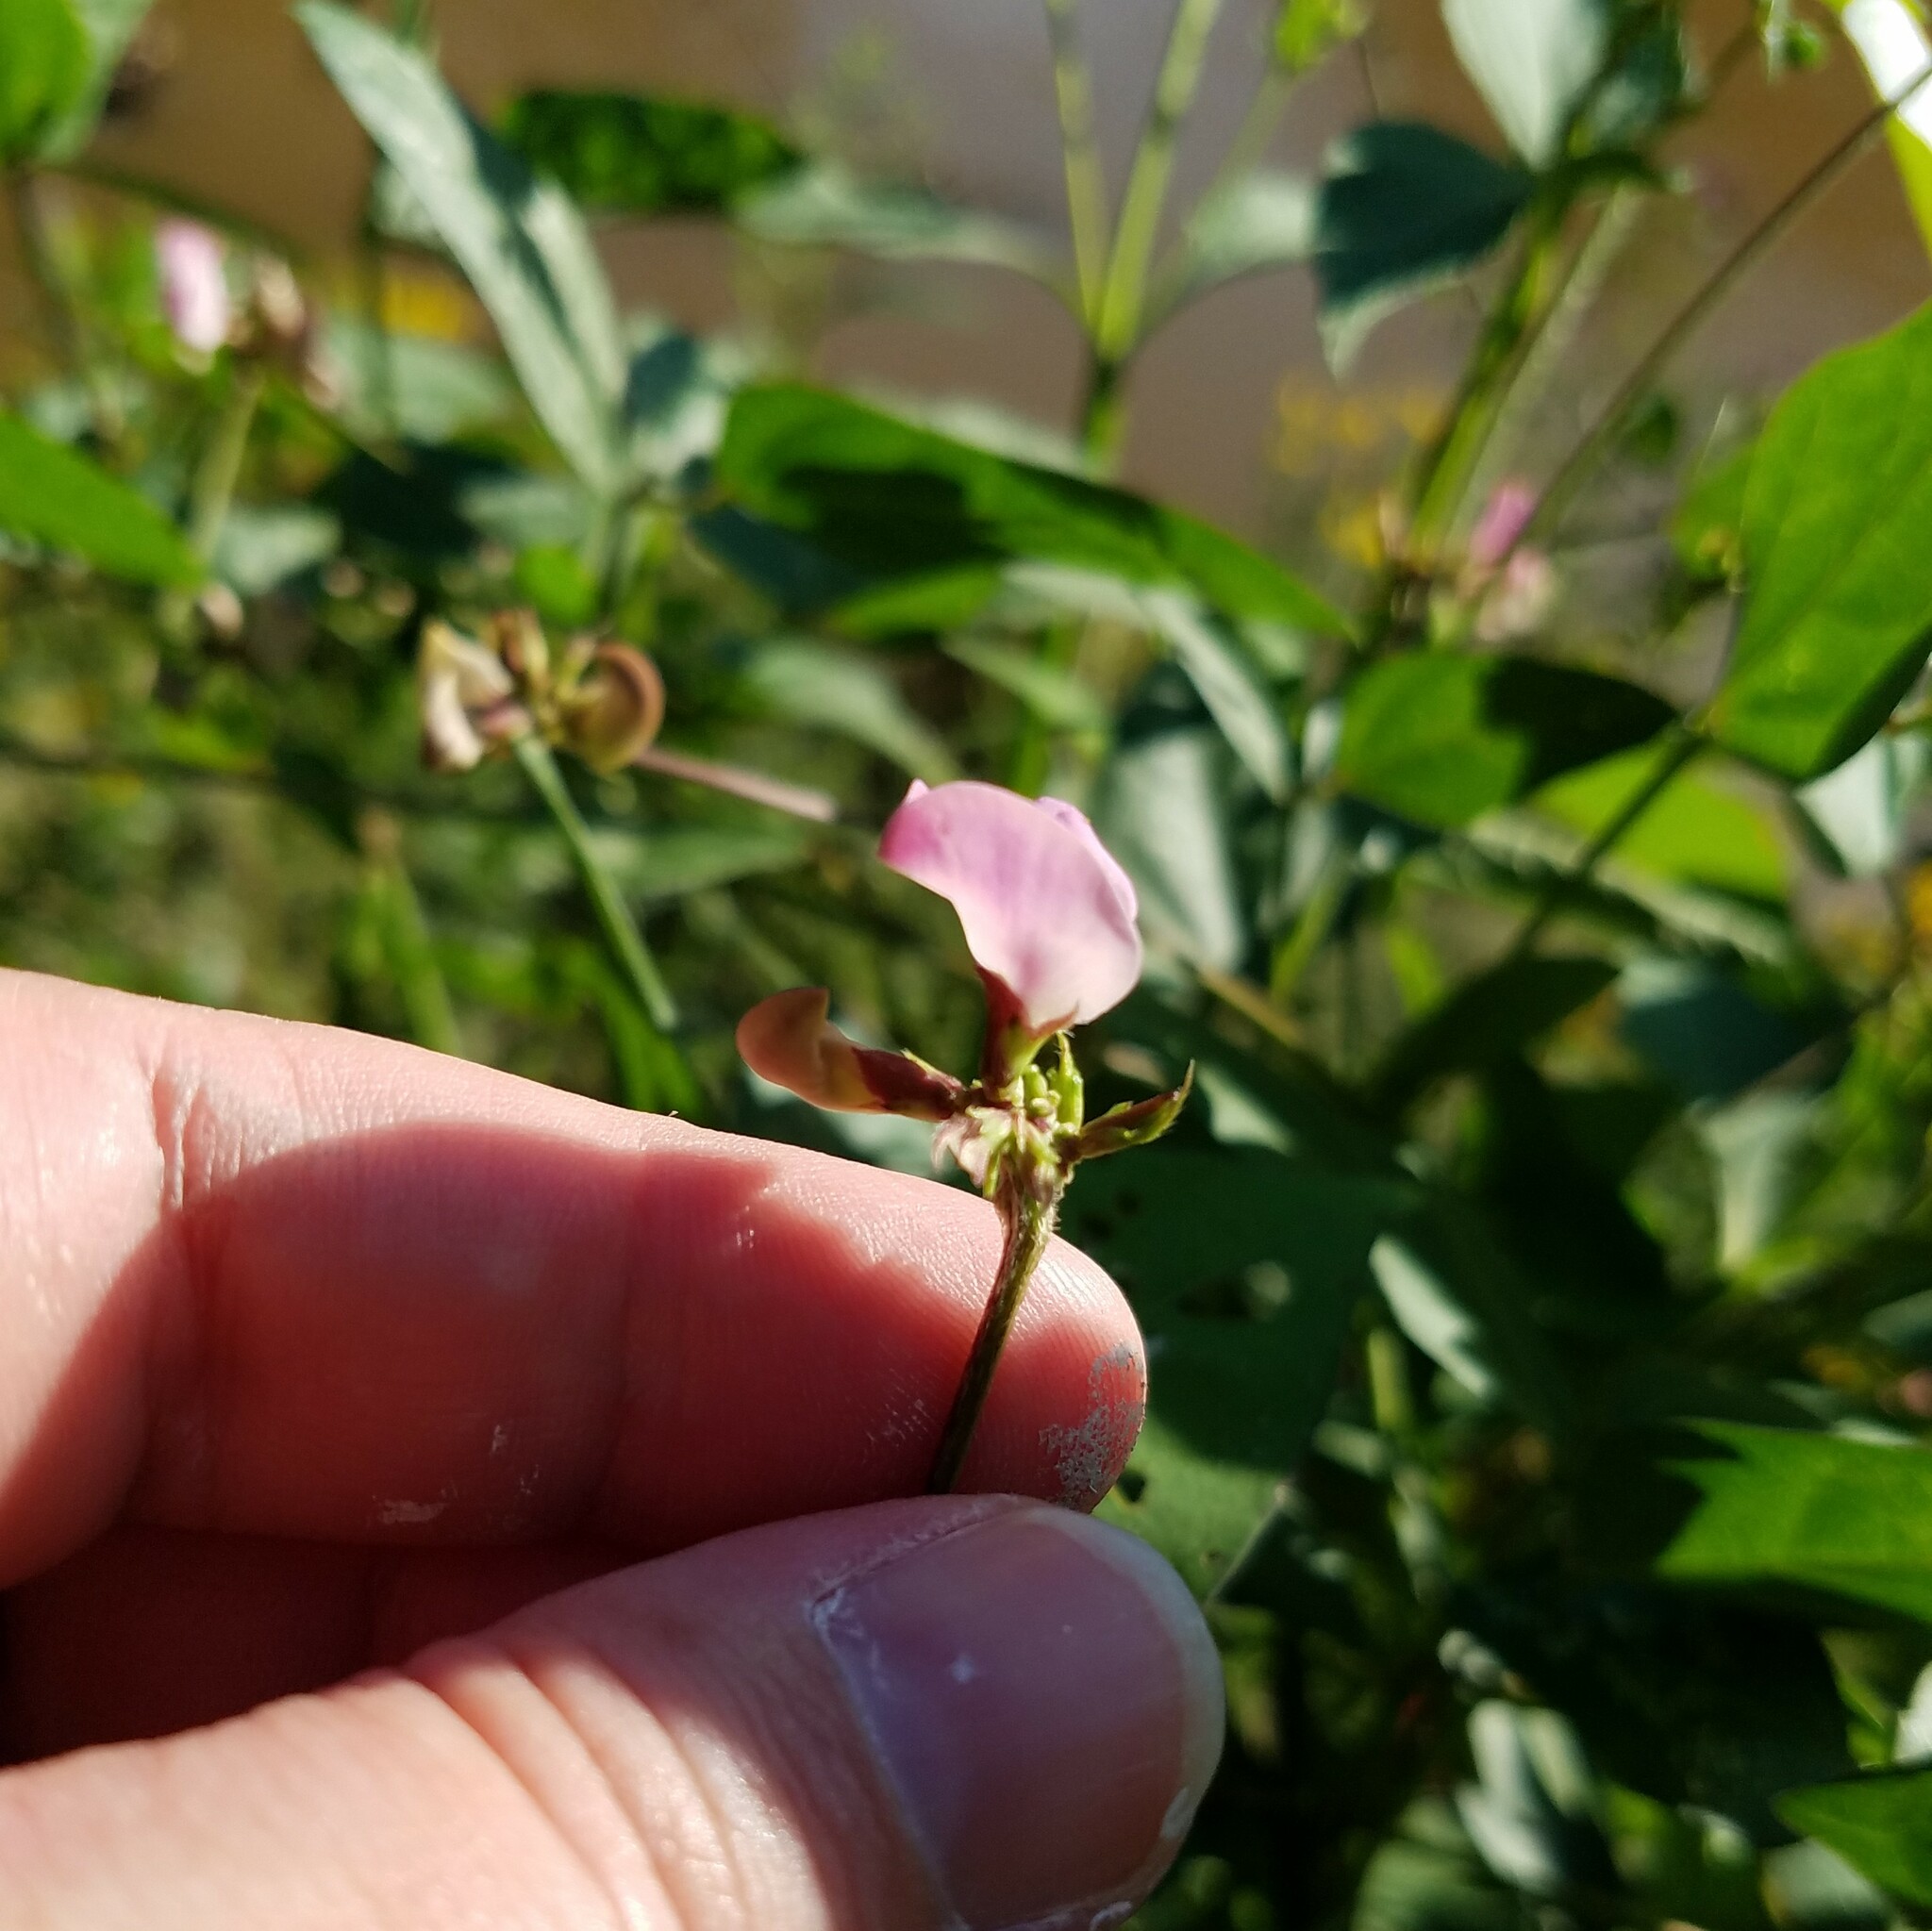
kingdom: Plantae
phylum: Tracheophyta
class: Magnoliopsida
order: Fabales
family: Fabaceae
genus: Strophostyles
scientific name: Strophostyles helvola
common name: Trailing wild bean
